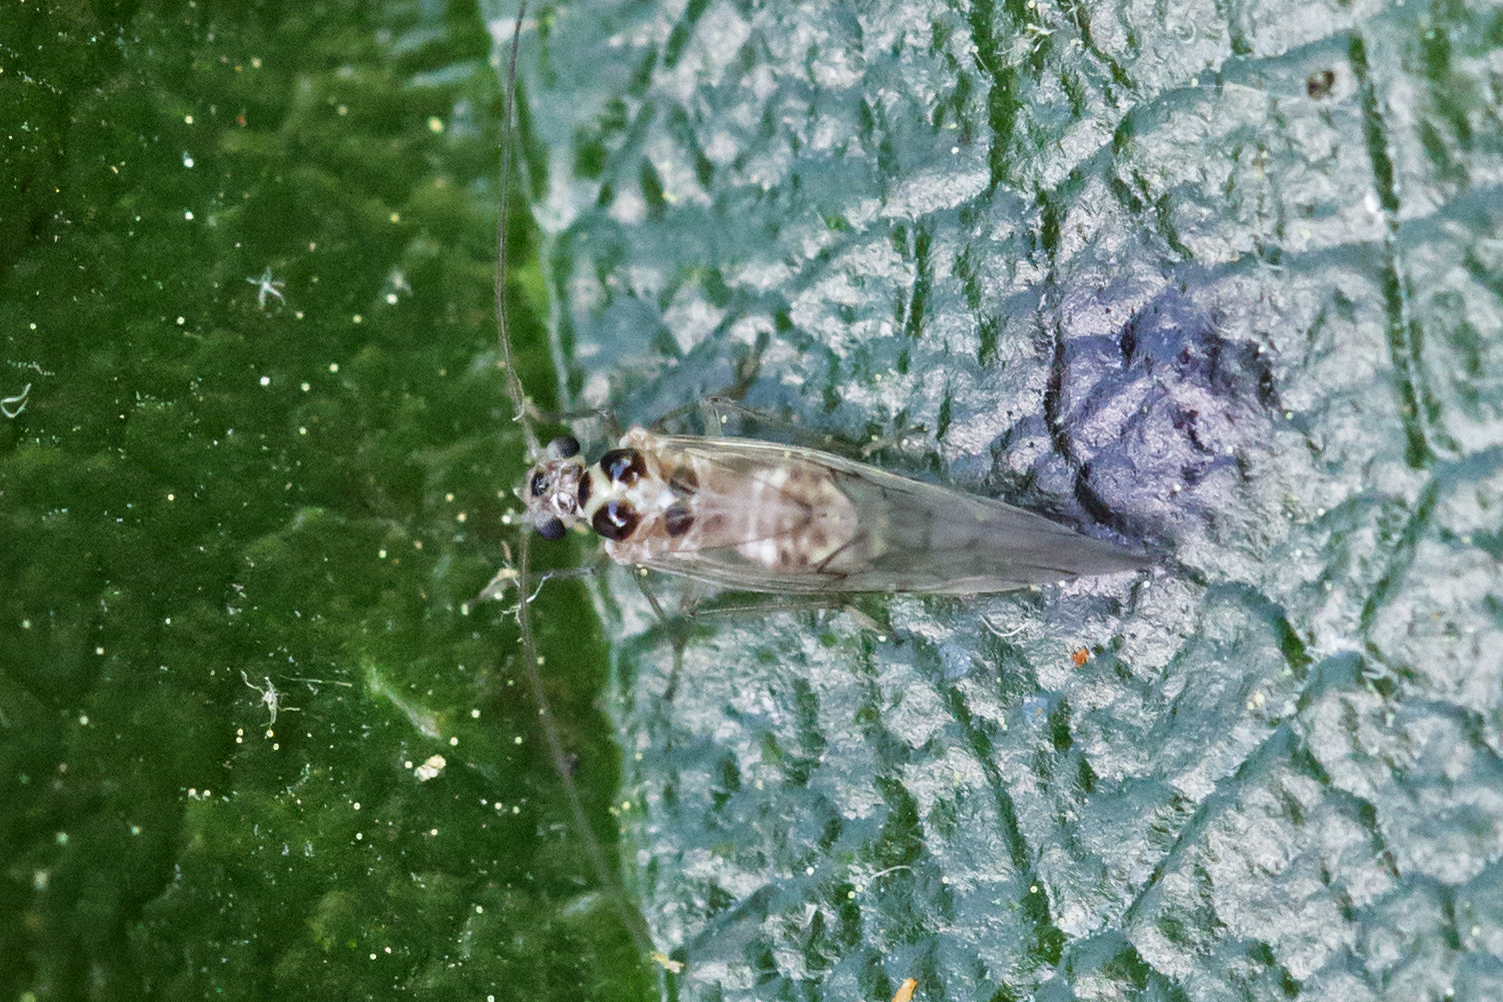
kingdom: Animalia
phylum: Arthropoda
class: Insecta
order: Psocodea
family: Dasydemellidae
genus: Teliapsocus
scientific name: Teliapsocus conterminus
